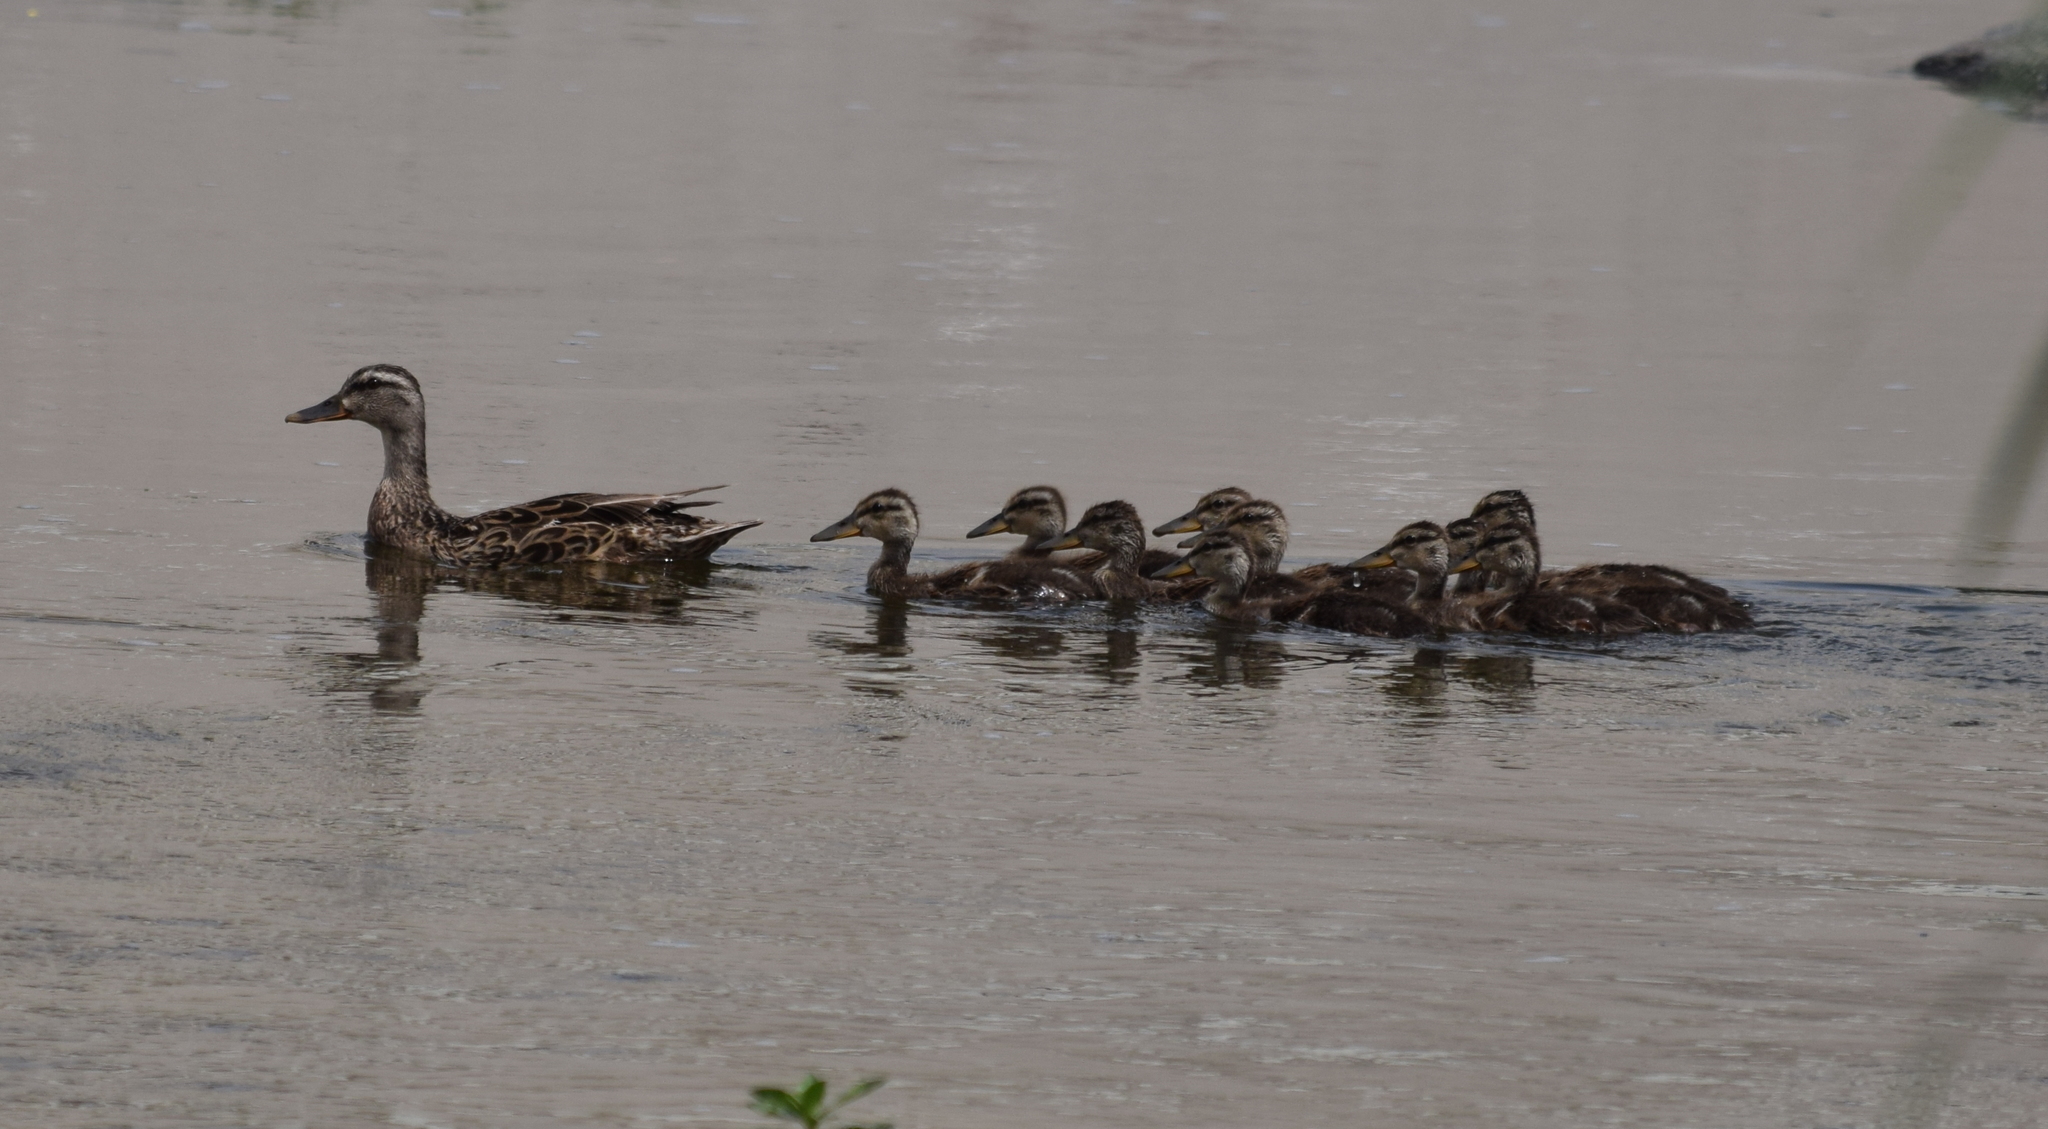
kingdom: Animalia
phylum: Chordata
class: Aves
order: Anseriformes
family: Anatidae
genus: Anas
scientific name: Anas platyrhynchos
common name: Mallard
